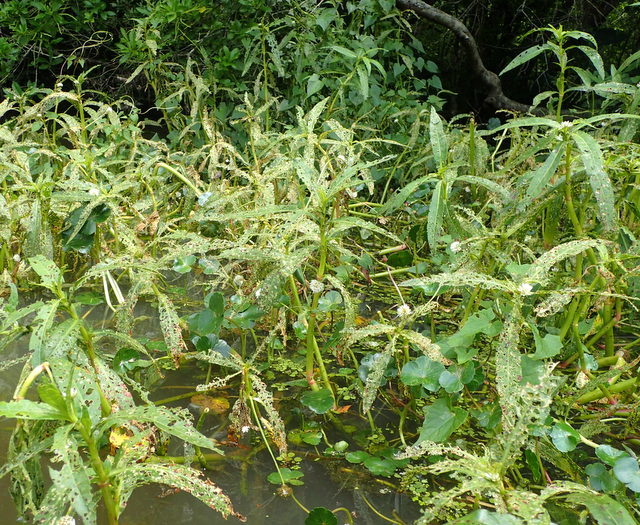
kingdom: Plantae
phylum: Tracheophyta
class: Magnoliopsida
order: Caryophyllales
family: Amaranthaceae
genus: Alternanthera
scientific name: Alternanthera philoxeroides
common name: Alligatorweed
